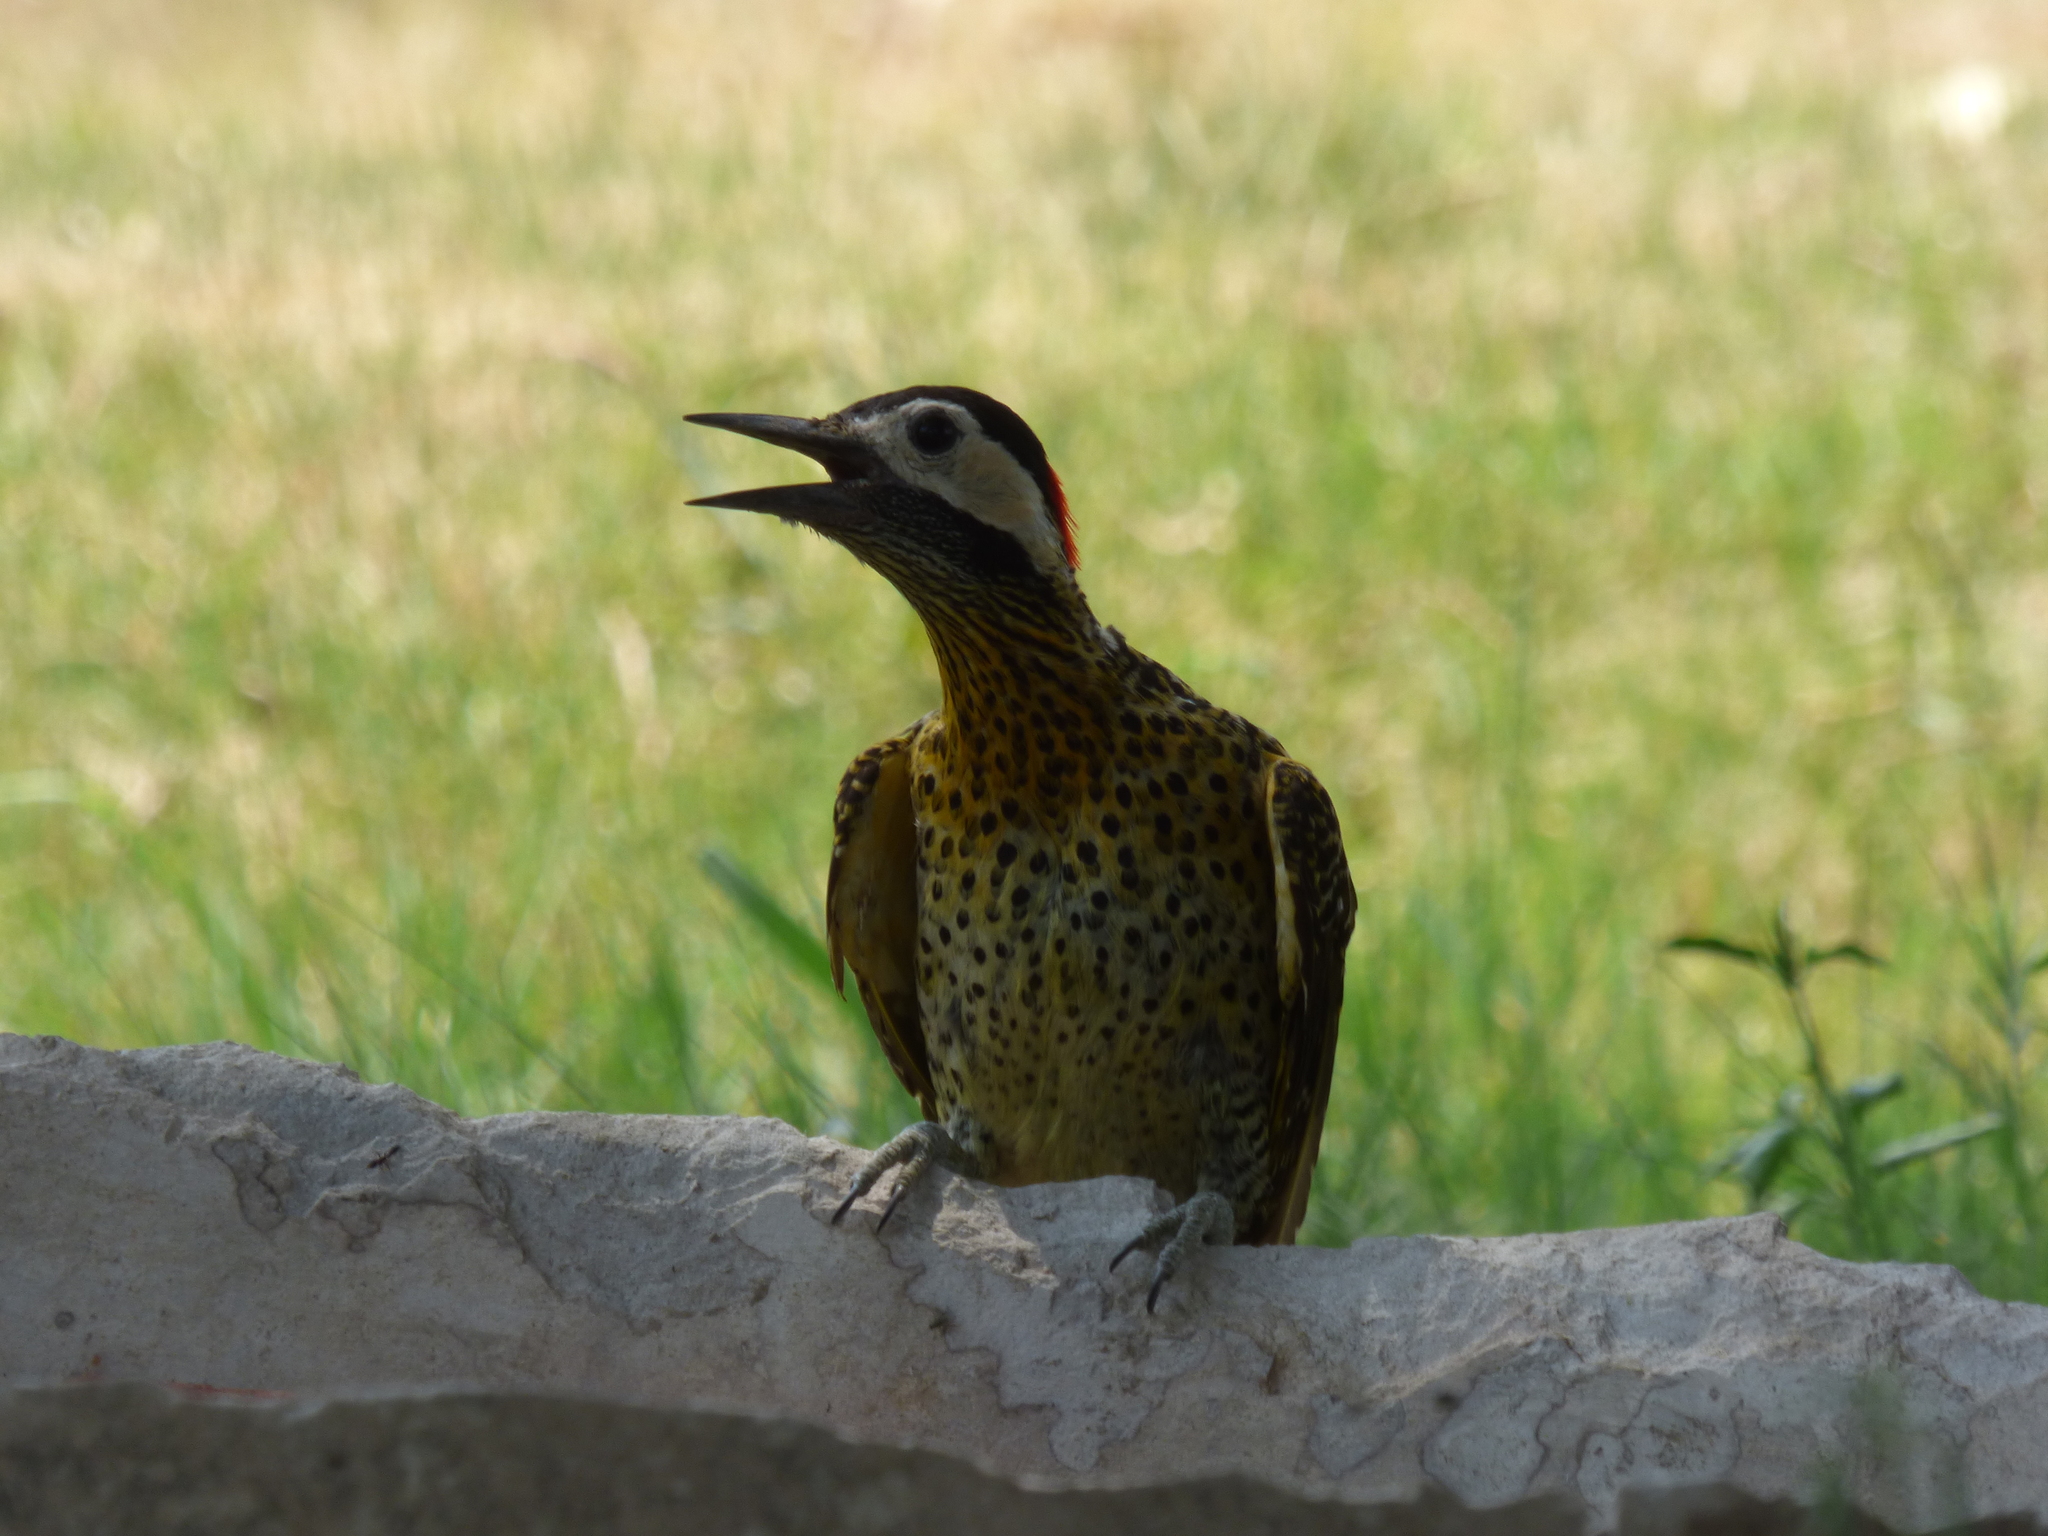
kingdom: Animalia
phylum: Chordata
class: Aves
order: Piciformes
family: Picidae
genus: Colaptes
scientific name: Colaptes melanochloros
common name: Green-barred woodpecker
